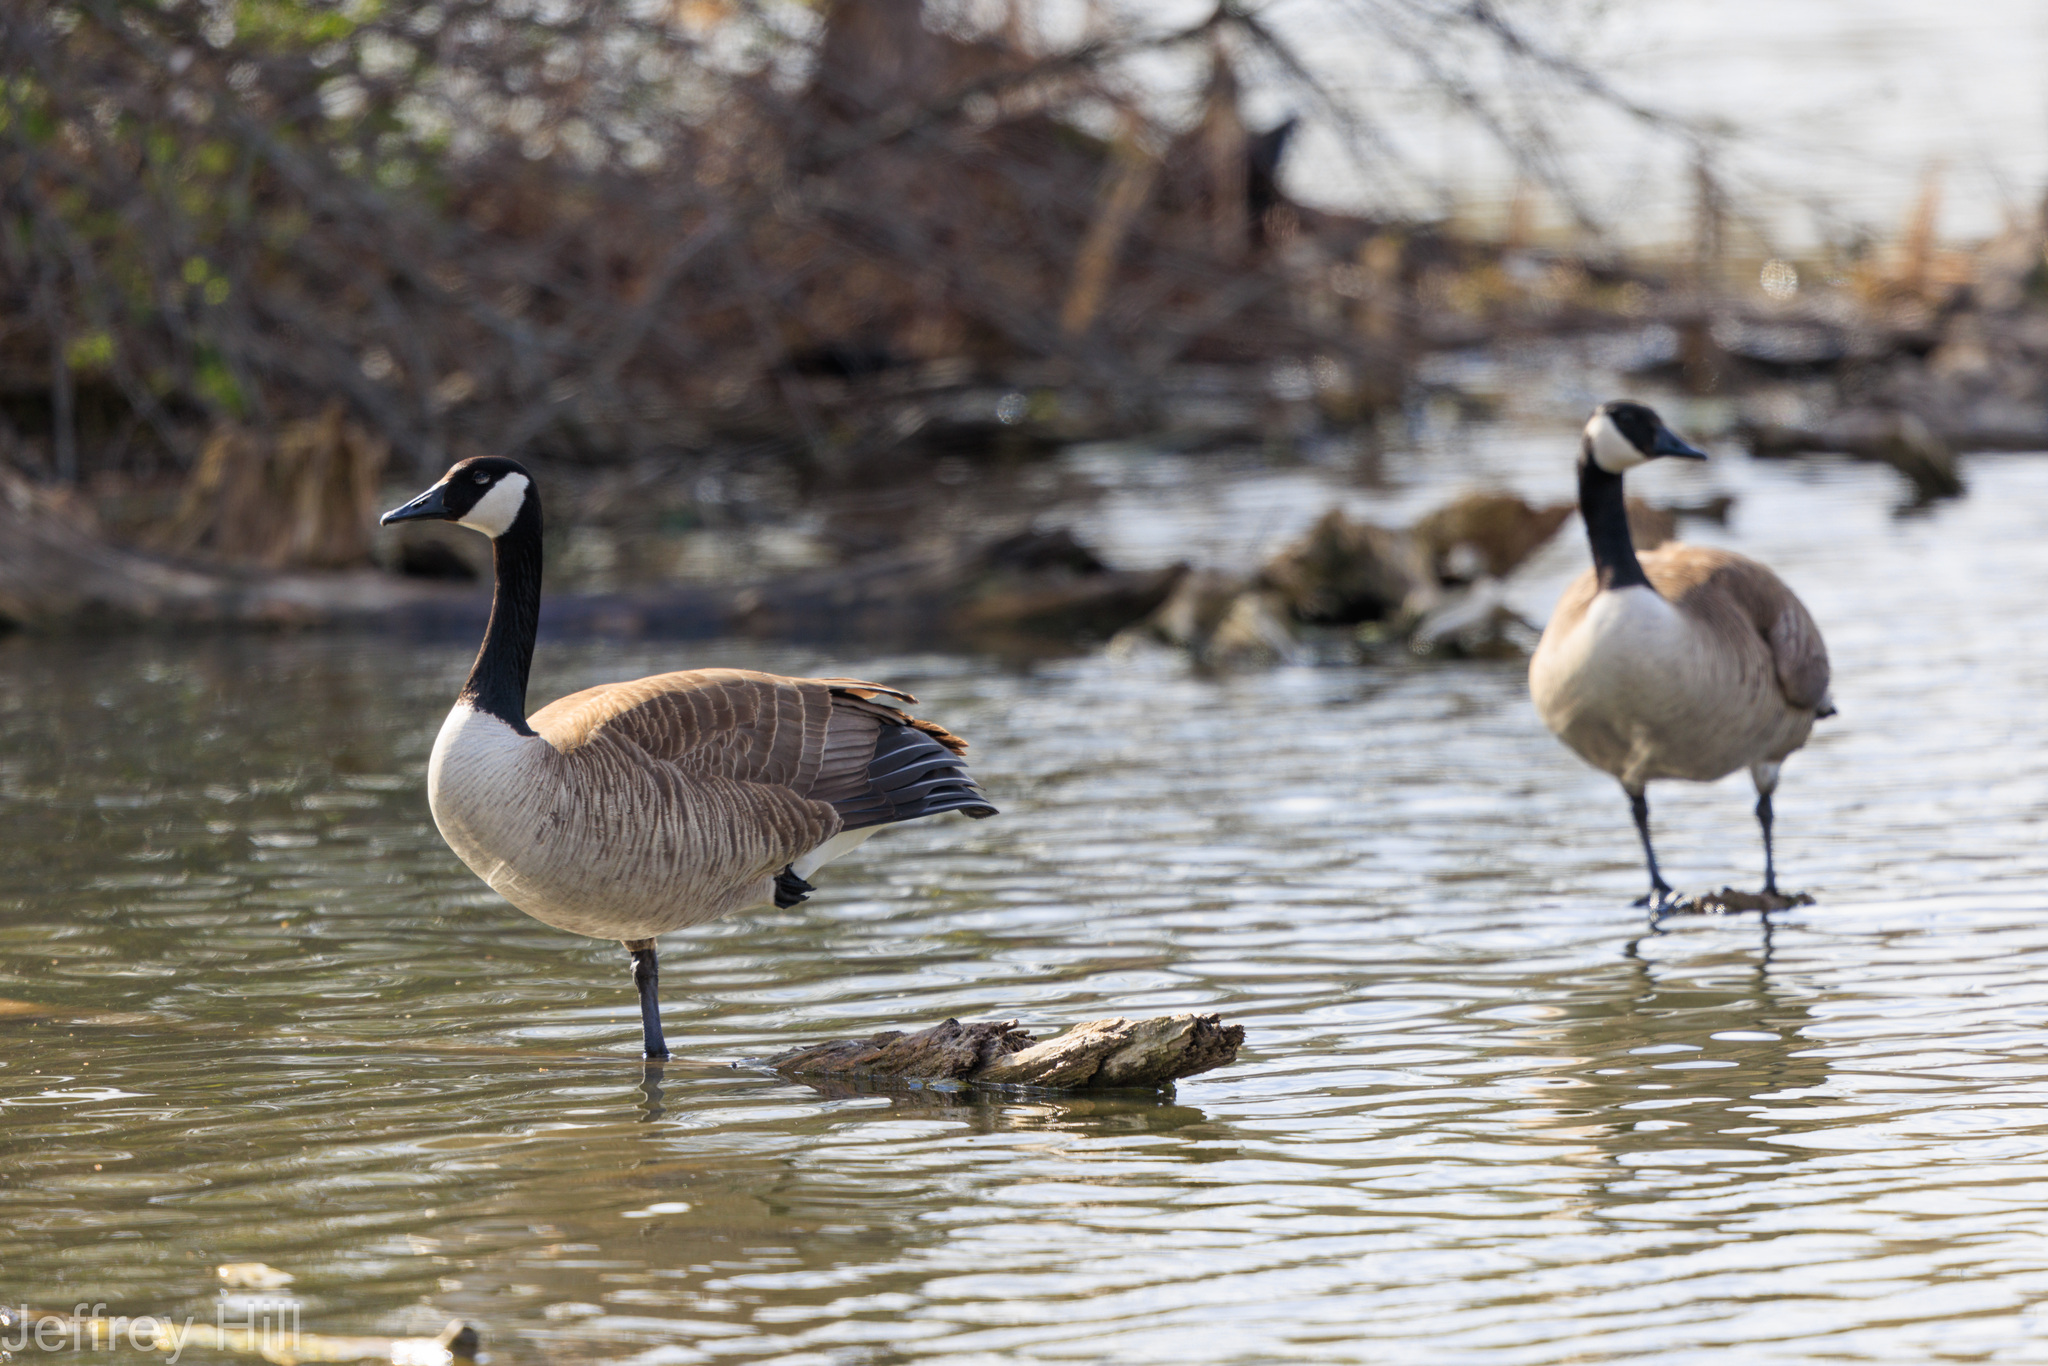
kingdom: Animalia
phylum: Chordata
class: Aves
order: Anseriformes
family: Anatidae
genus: Branta
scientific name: Branta canadensis
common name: Canada goose
